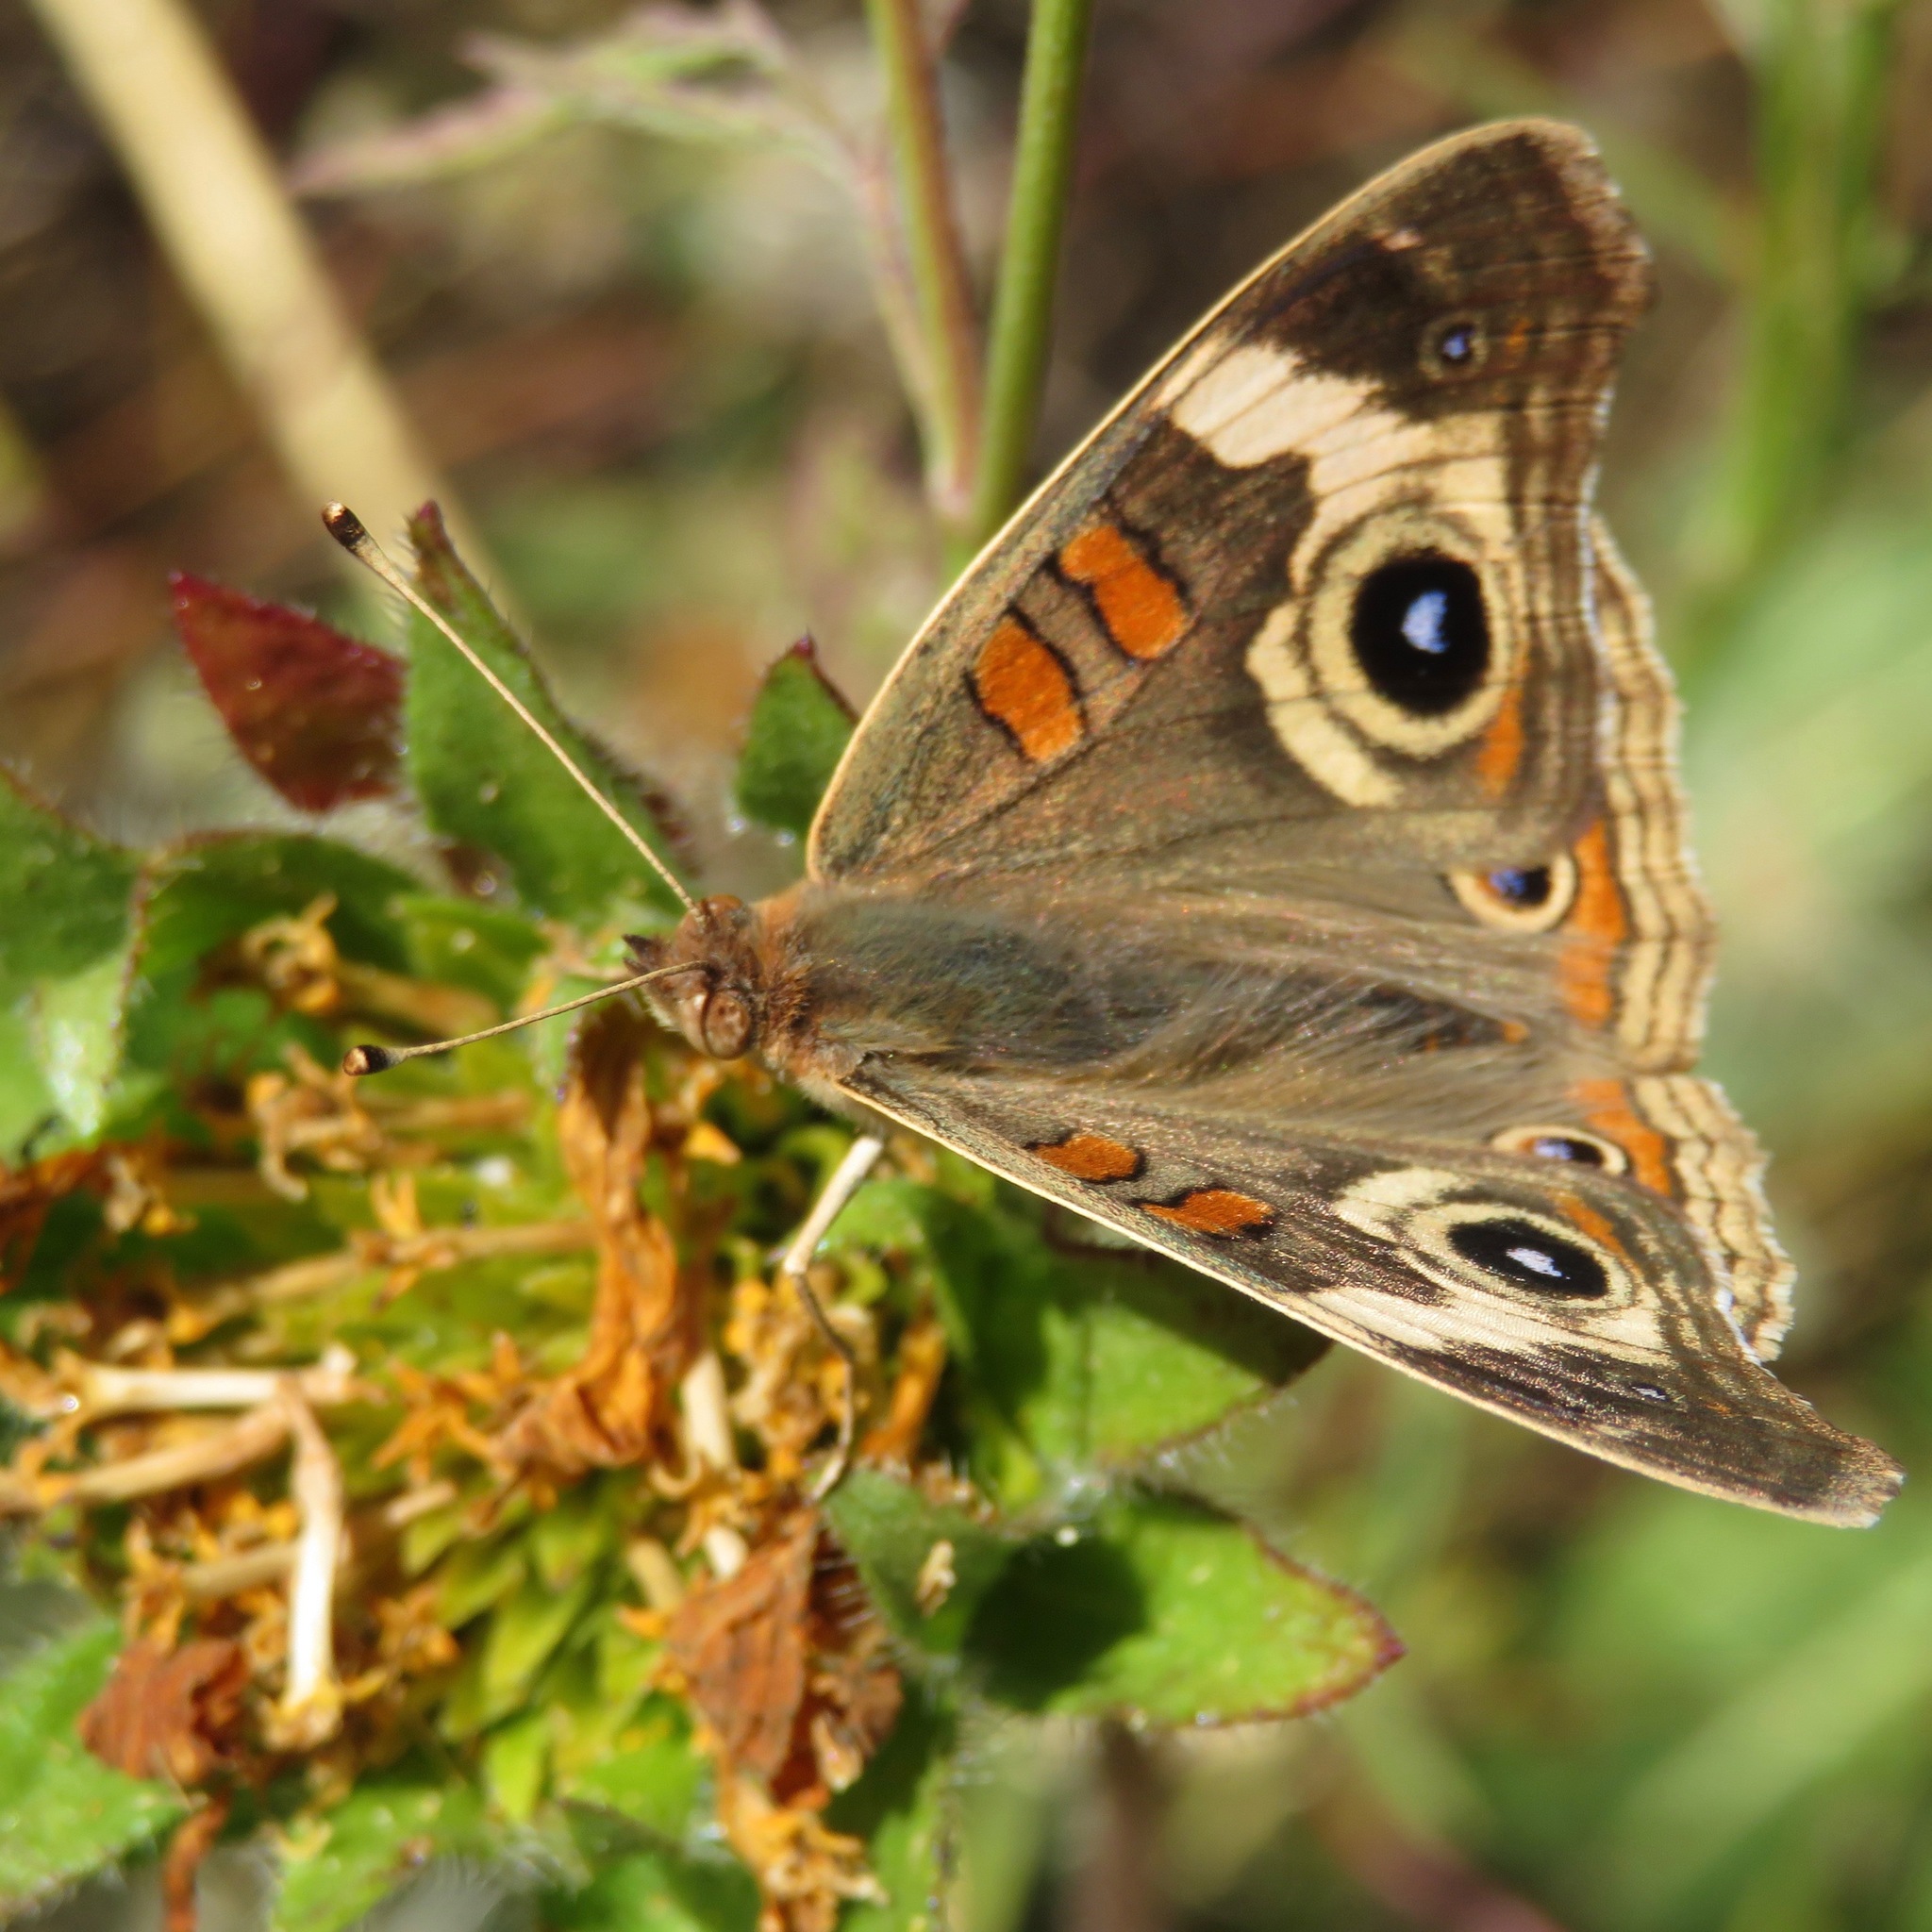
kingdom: Animalia
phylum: Arthropoda
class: Insecta
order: Lepidoptera
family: Nymphalidae
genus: Junonia
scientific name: Junonia grisea
